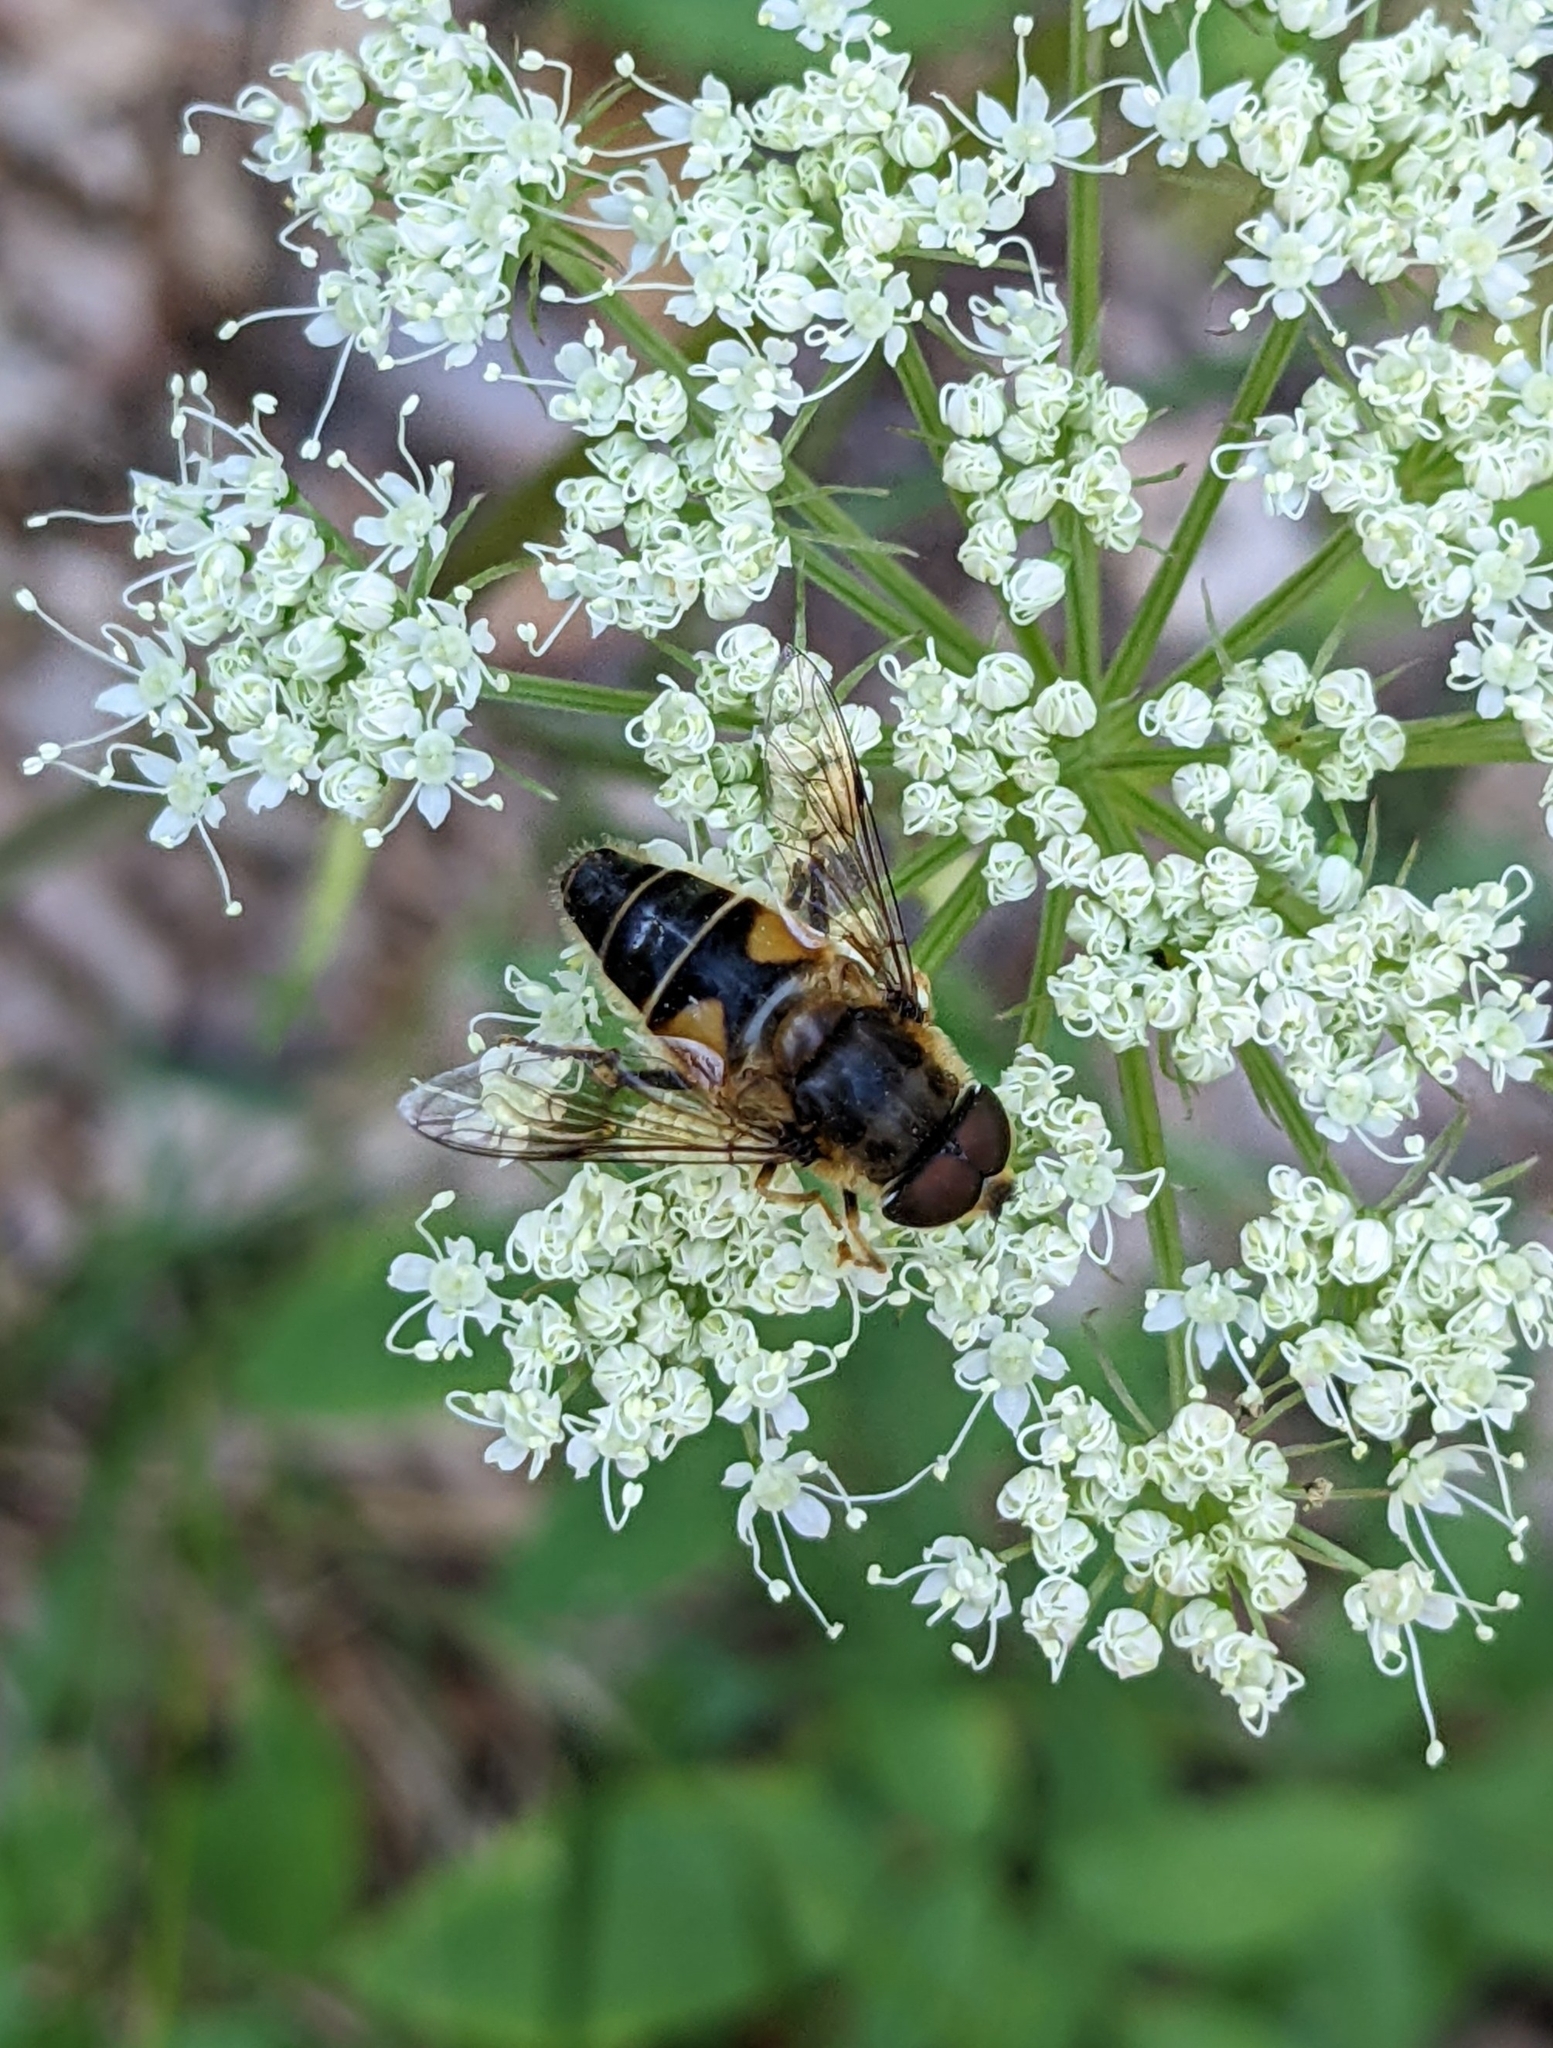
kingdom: Animalia
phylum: Arthropoda
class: Insecta
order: Diptera
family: Syrphidae
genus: Eristalis
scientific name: Eristalis pertinax
